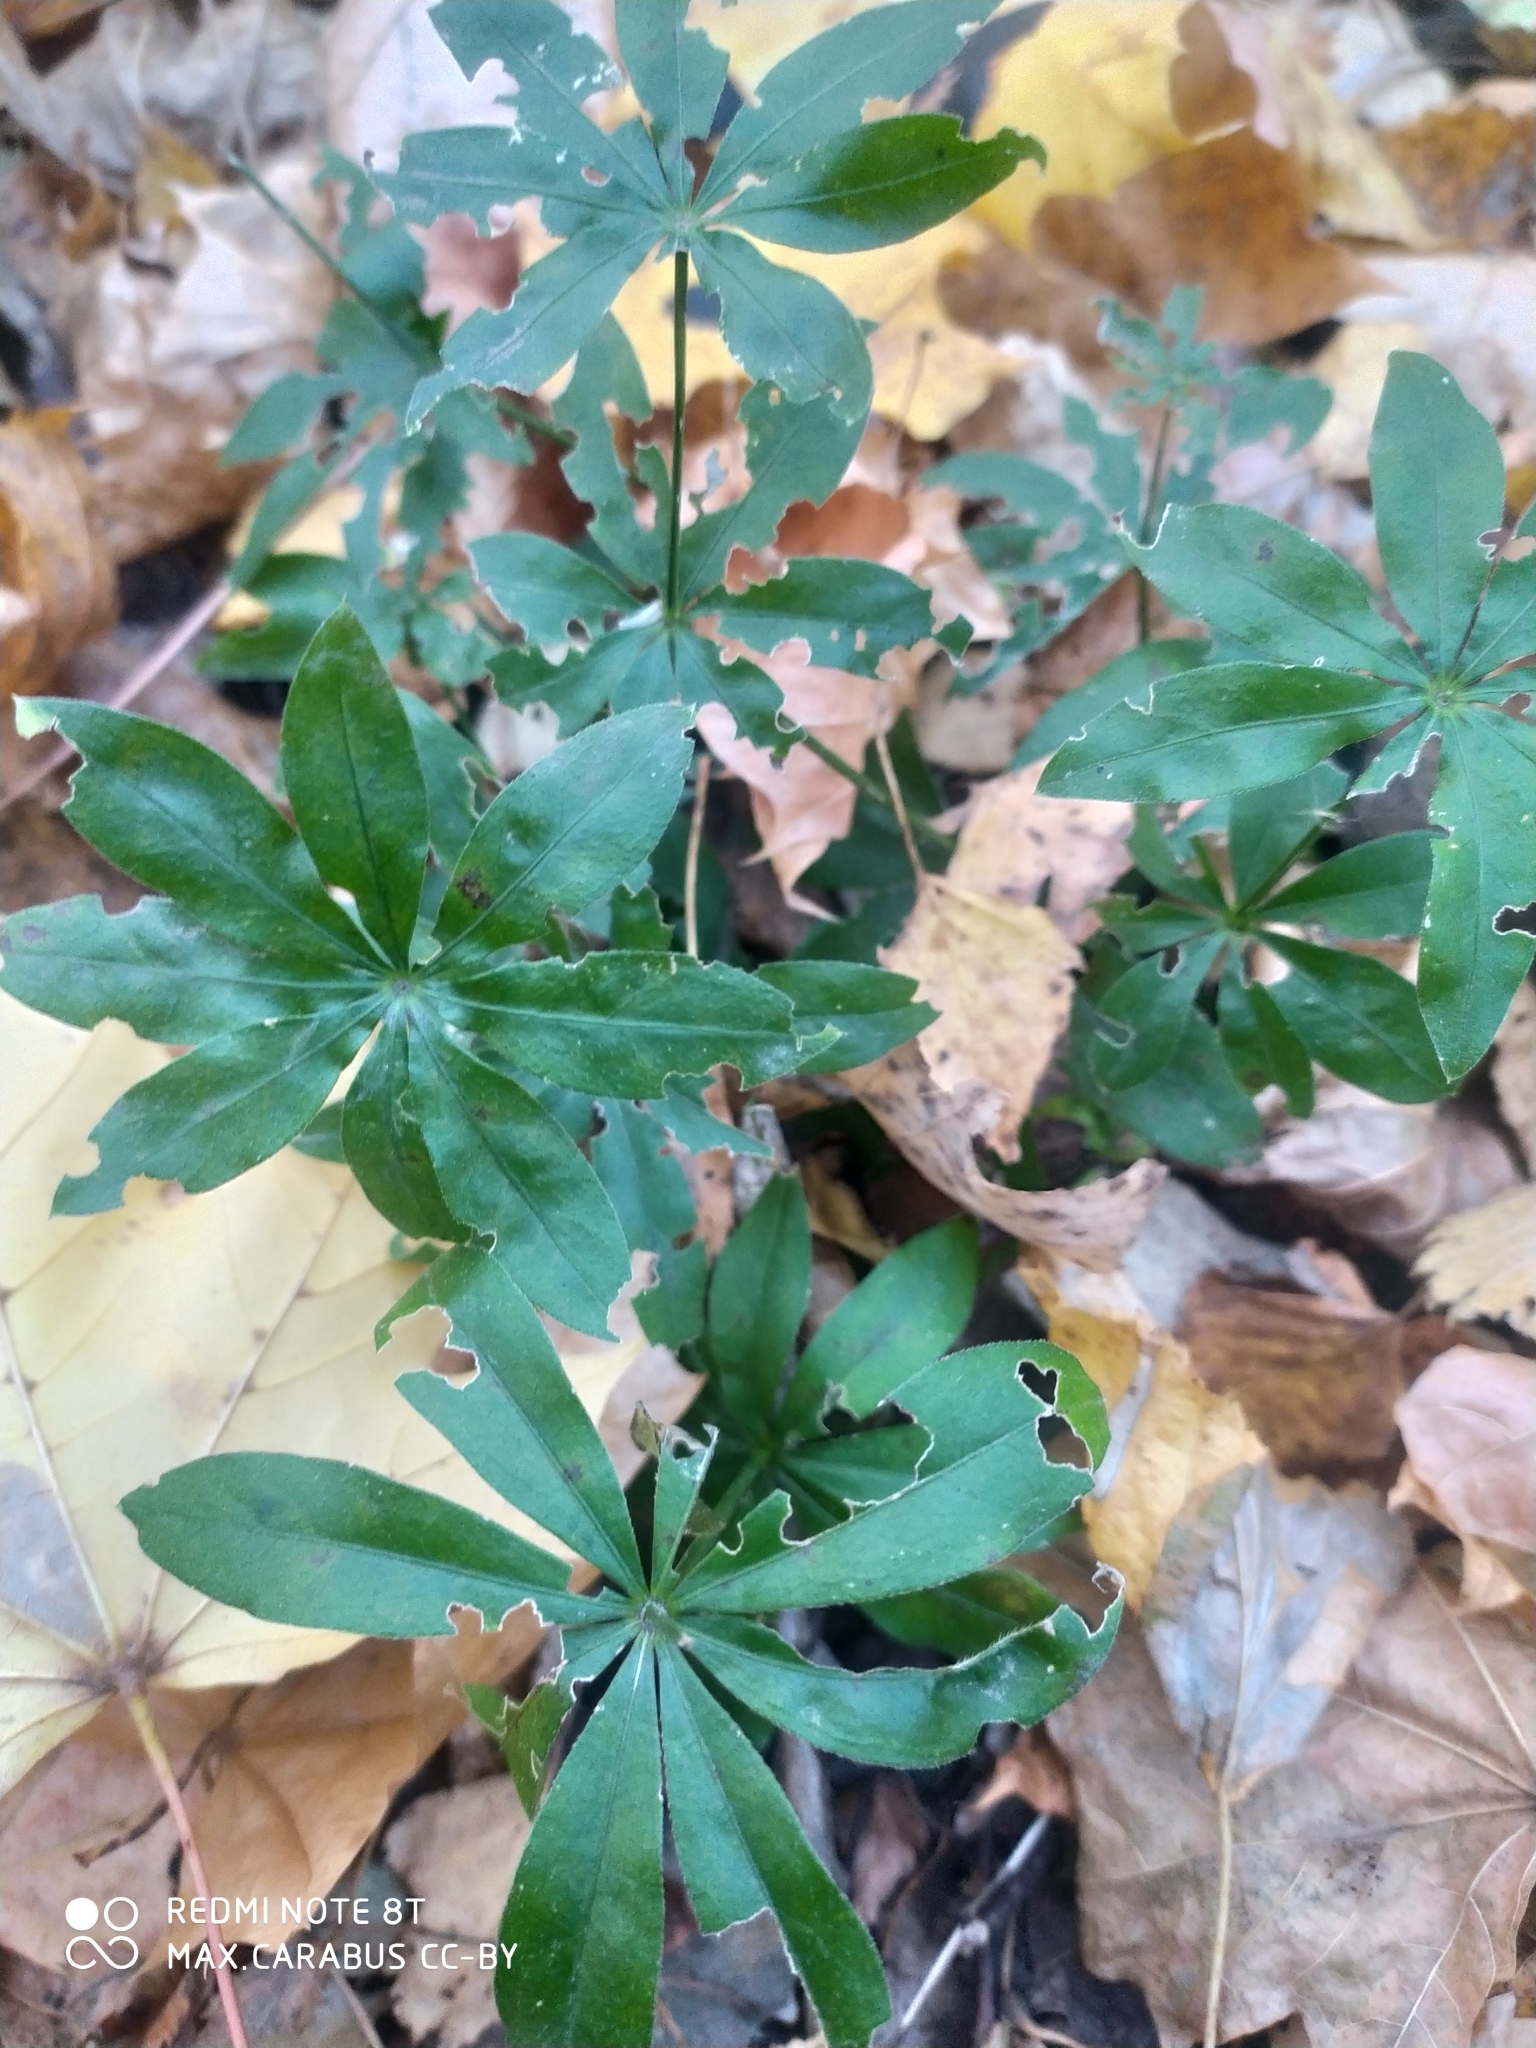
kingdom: Plantae
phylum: Tracheophyta
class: Magnoliopsida
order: Gentianales
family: Rubiaceae
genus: Galium
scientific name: Galium odoratum
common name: Sweet woodruff
